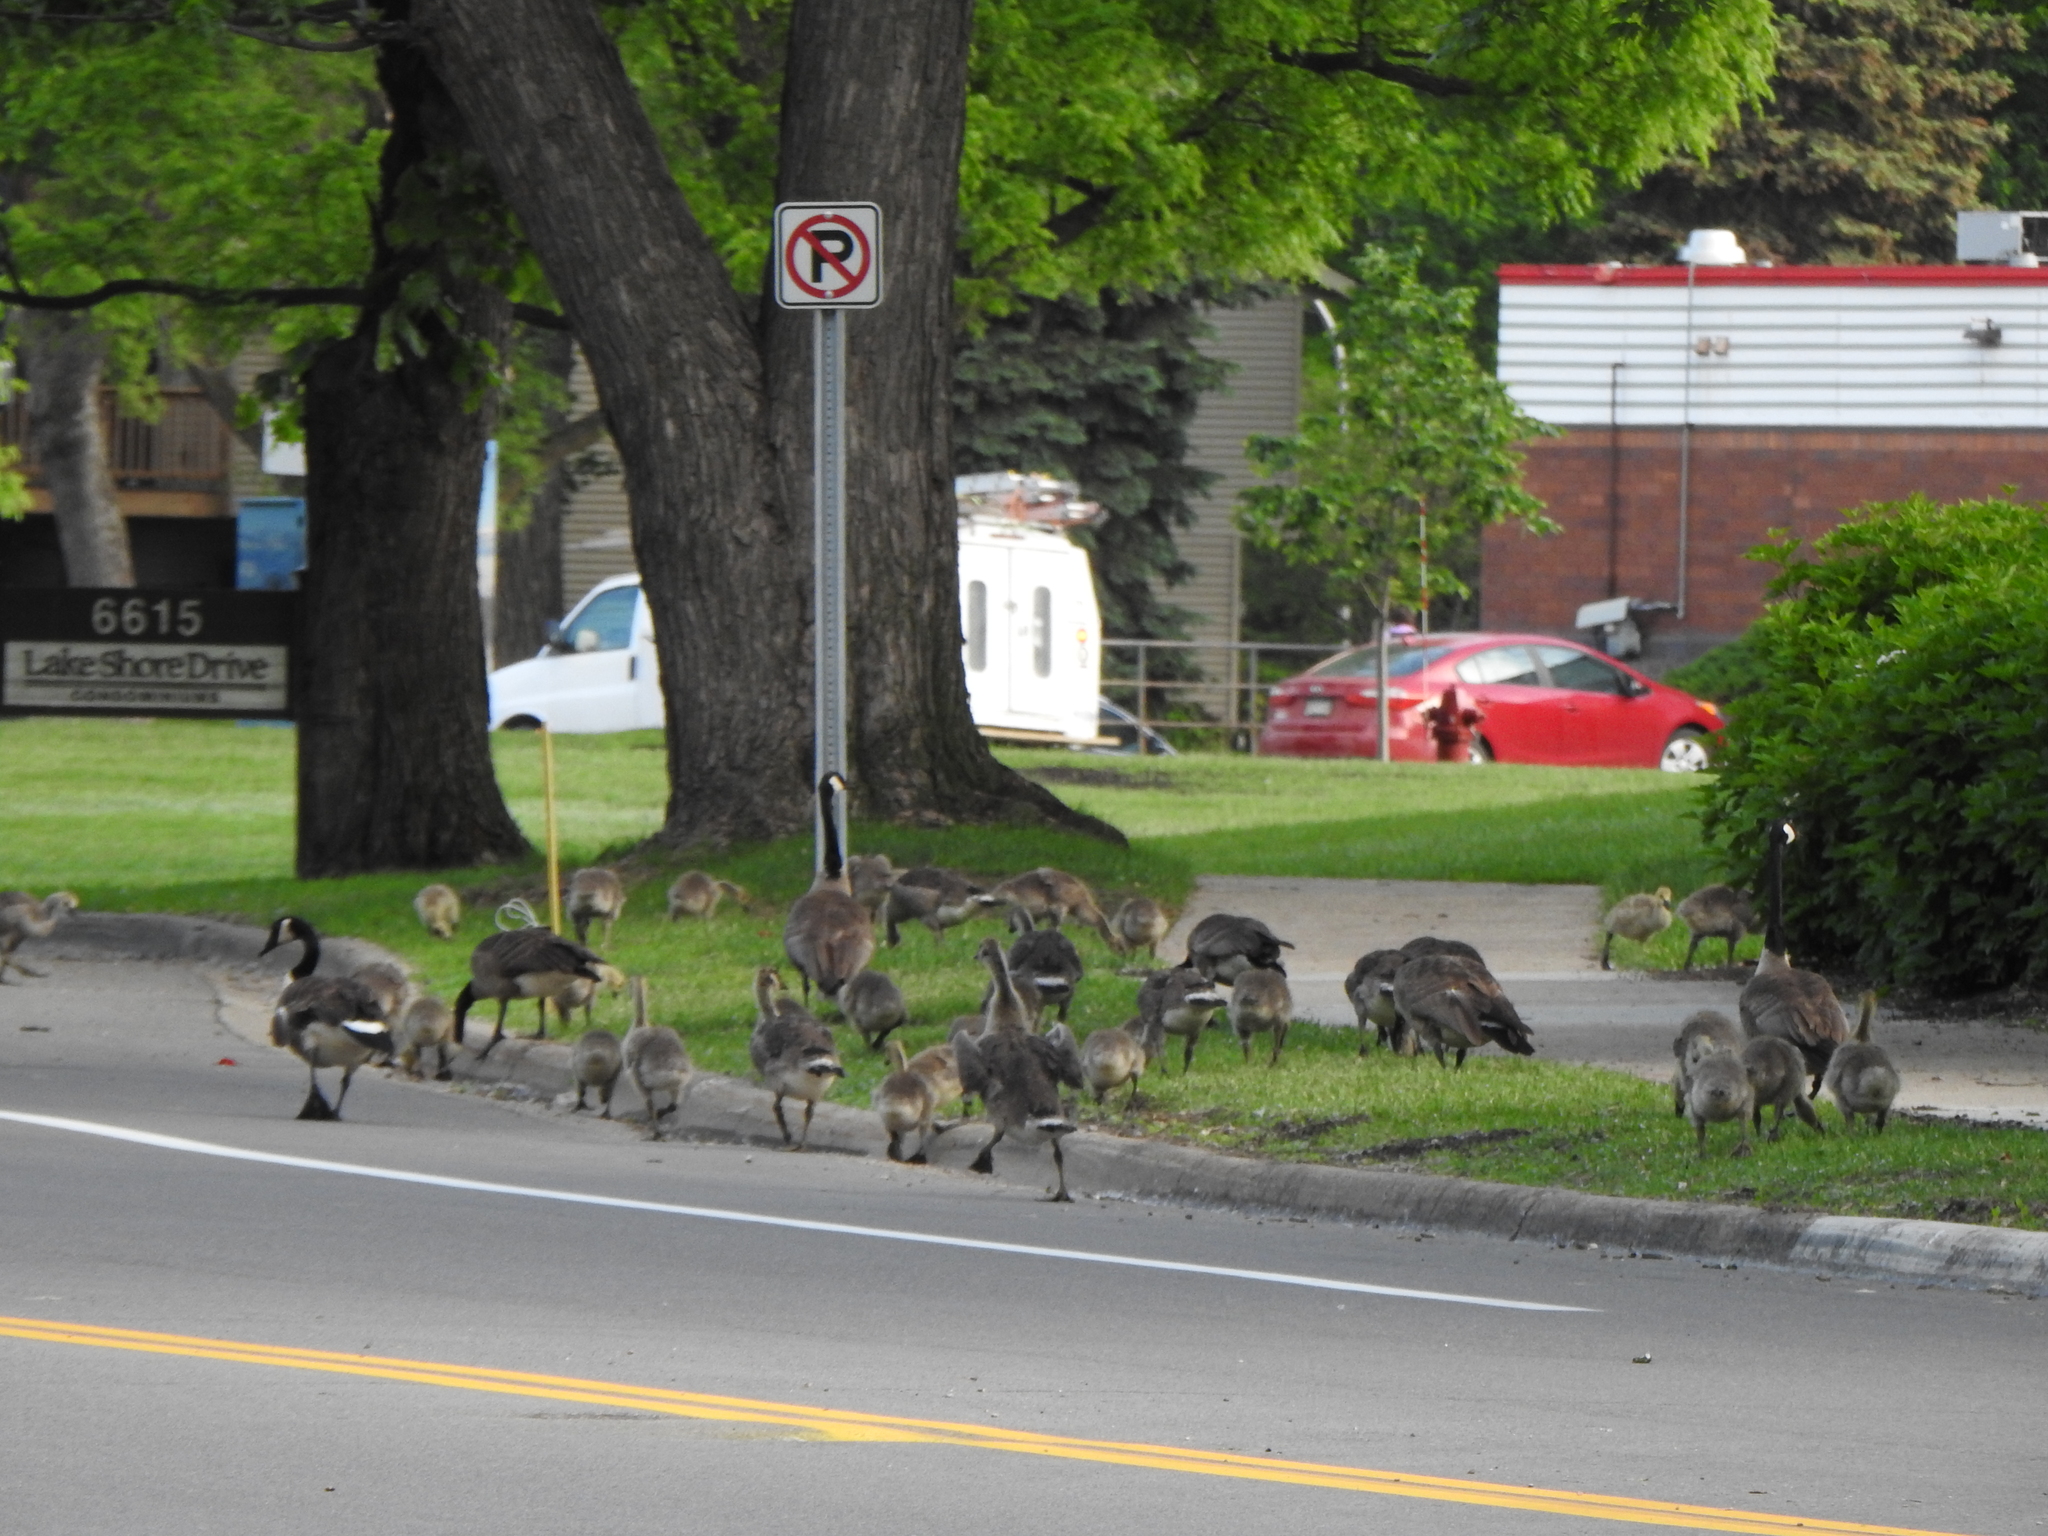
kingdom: Animalia
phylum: Chordata
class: Aves
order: Anseriformes
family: Anatidae
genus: Branta
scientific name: Branta canadensis
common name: Canada goose
